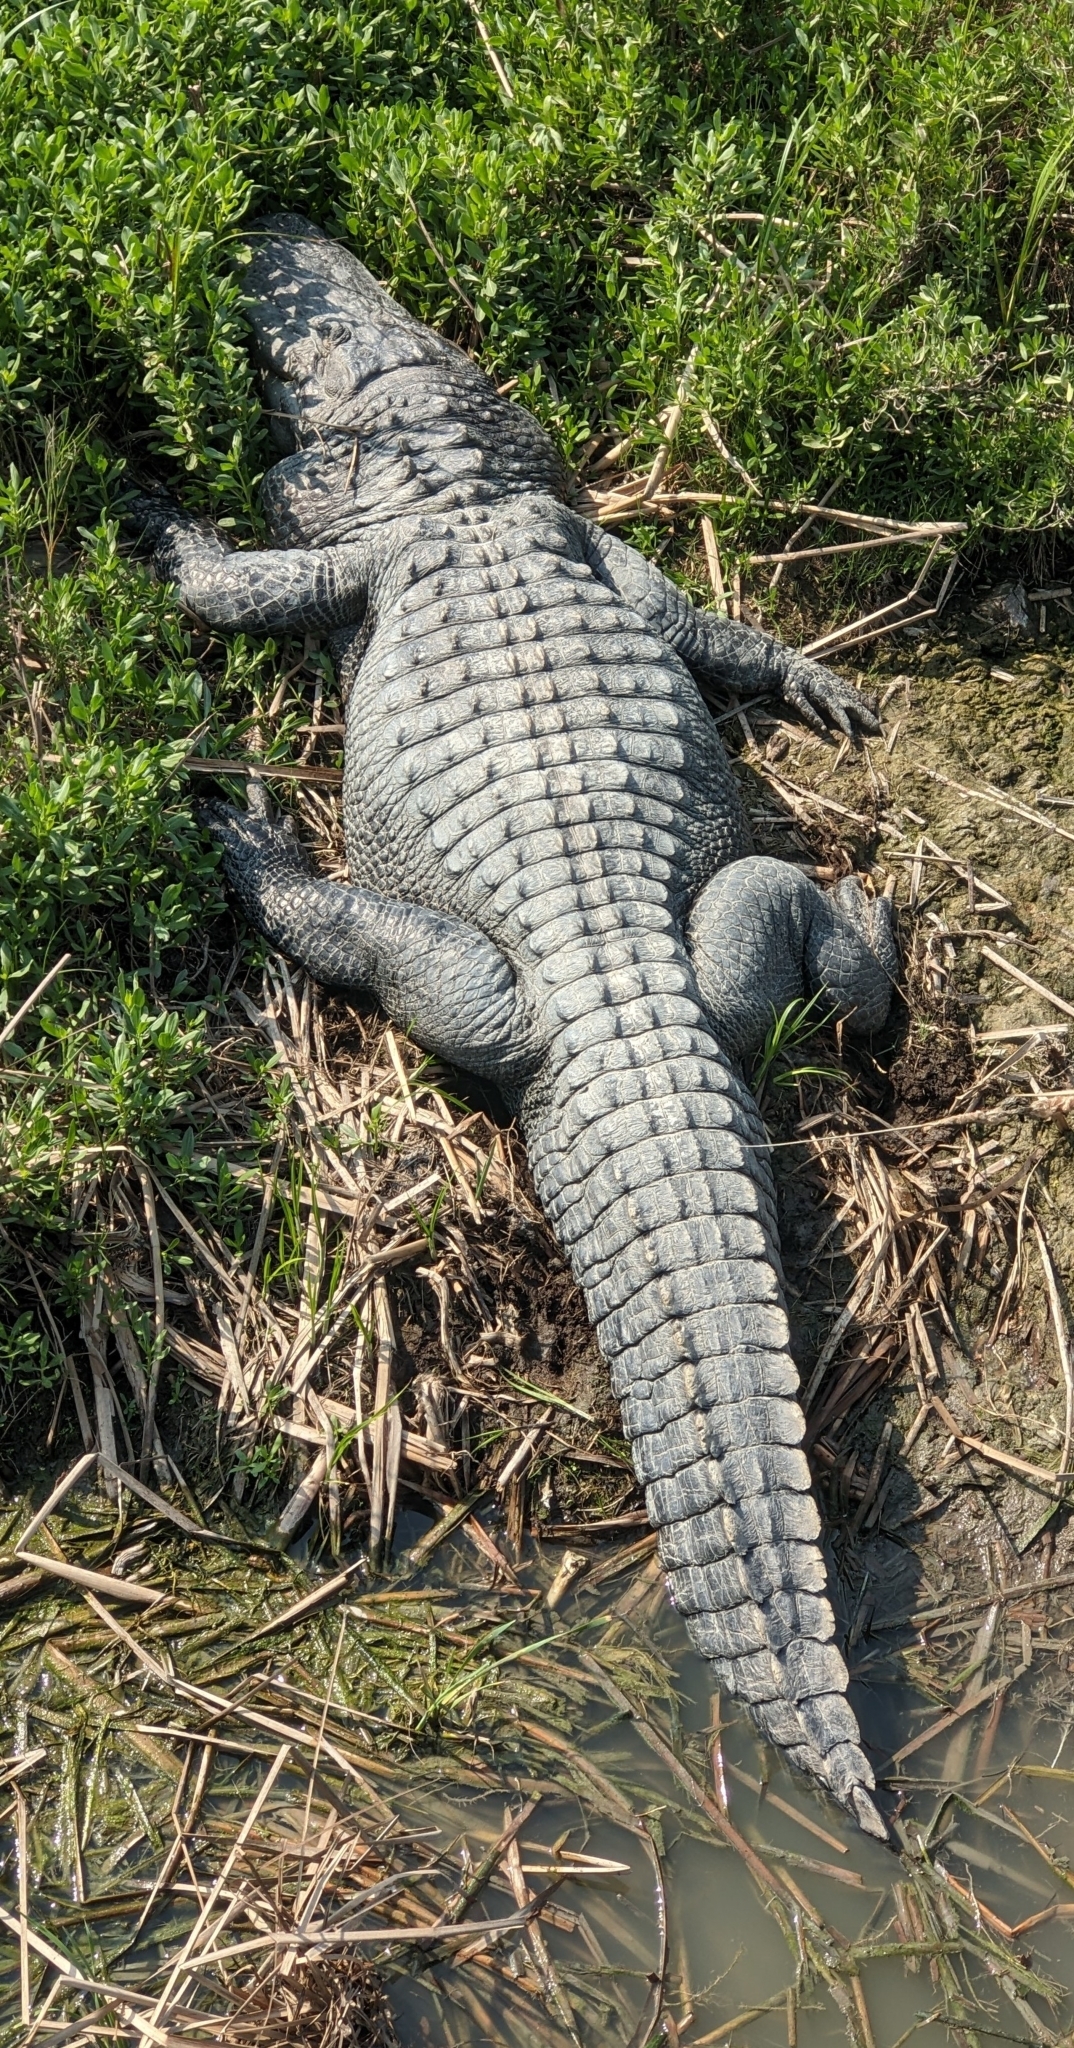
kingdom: Animalia
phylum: Chordata
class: Crocodylia
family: Alligatoridae
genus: Alligator
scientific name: Alligator mississippiensis
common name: American alligator
